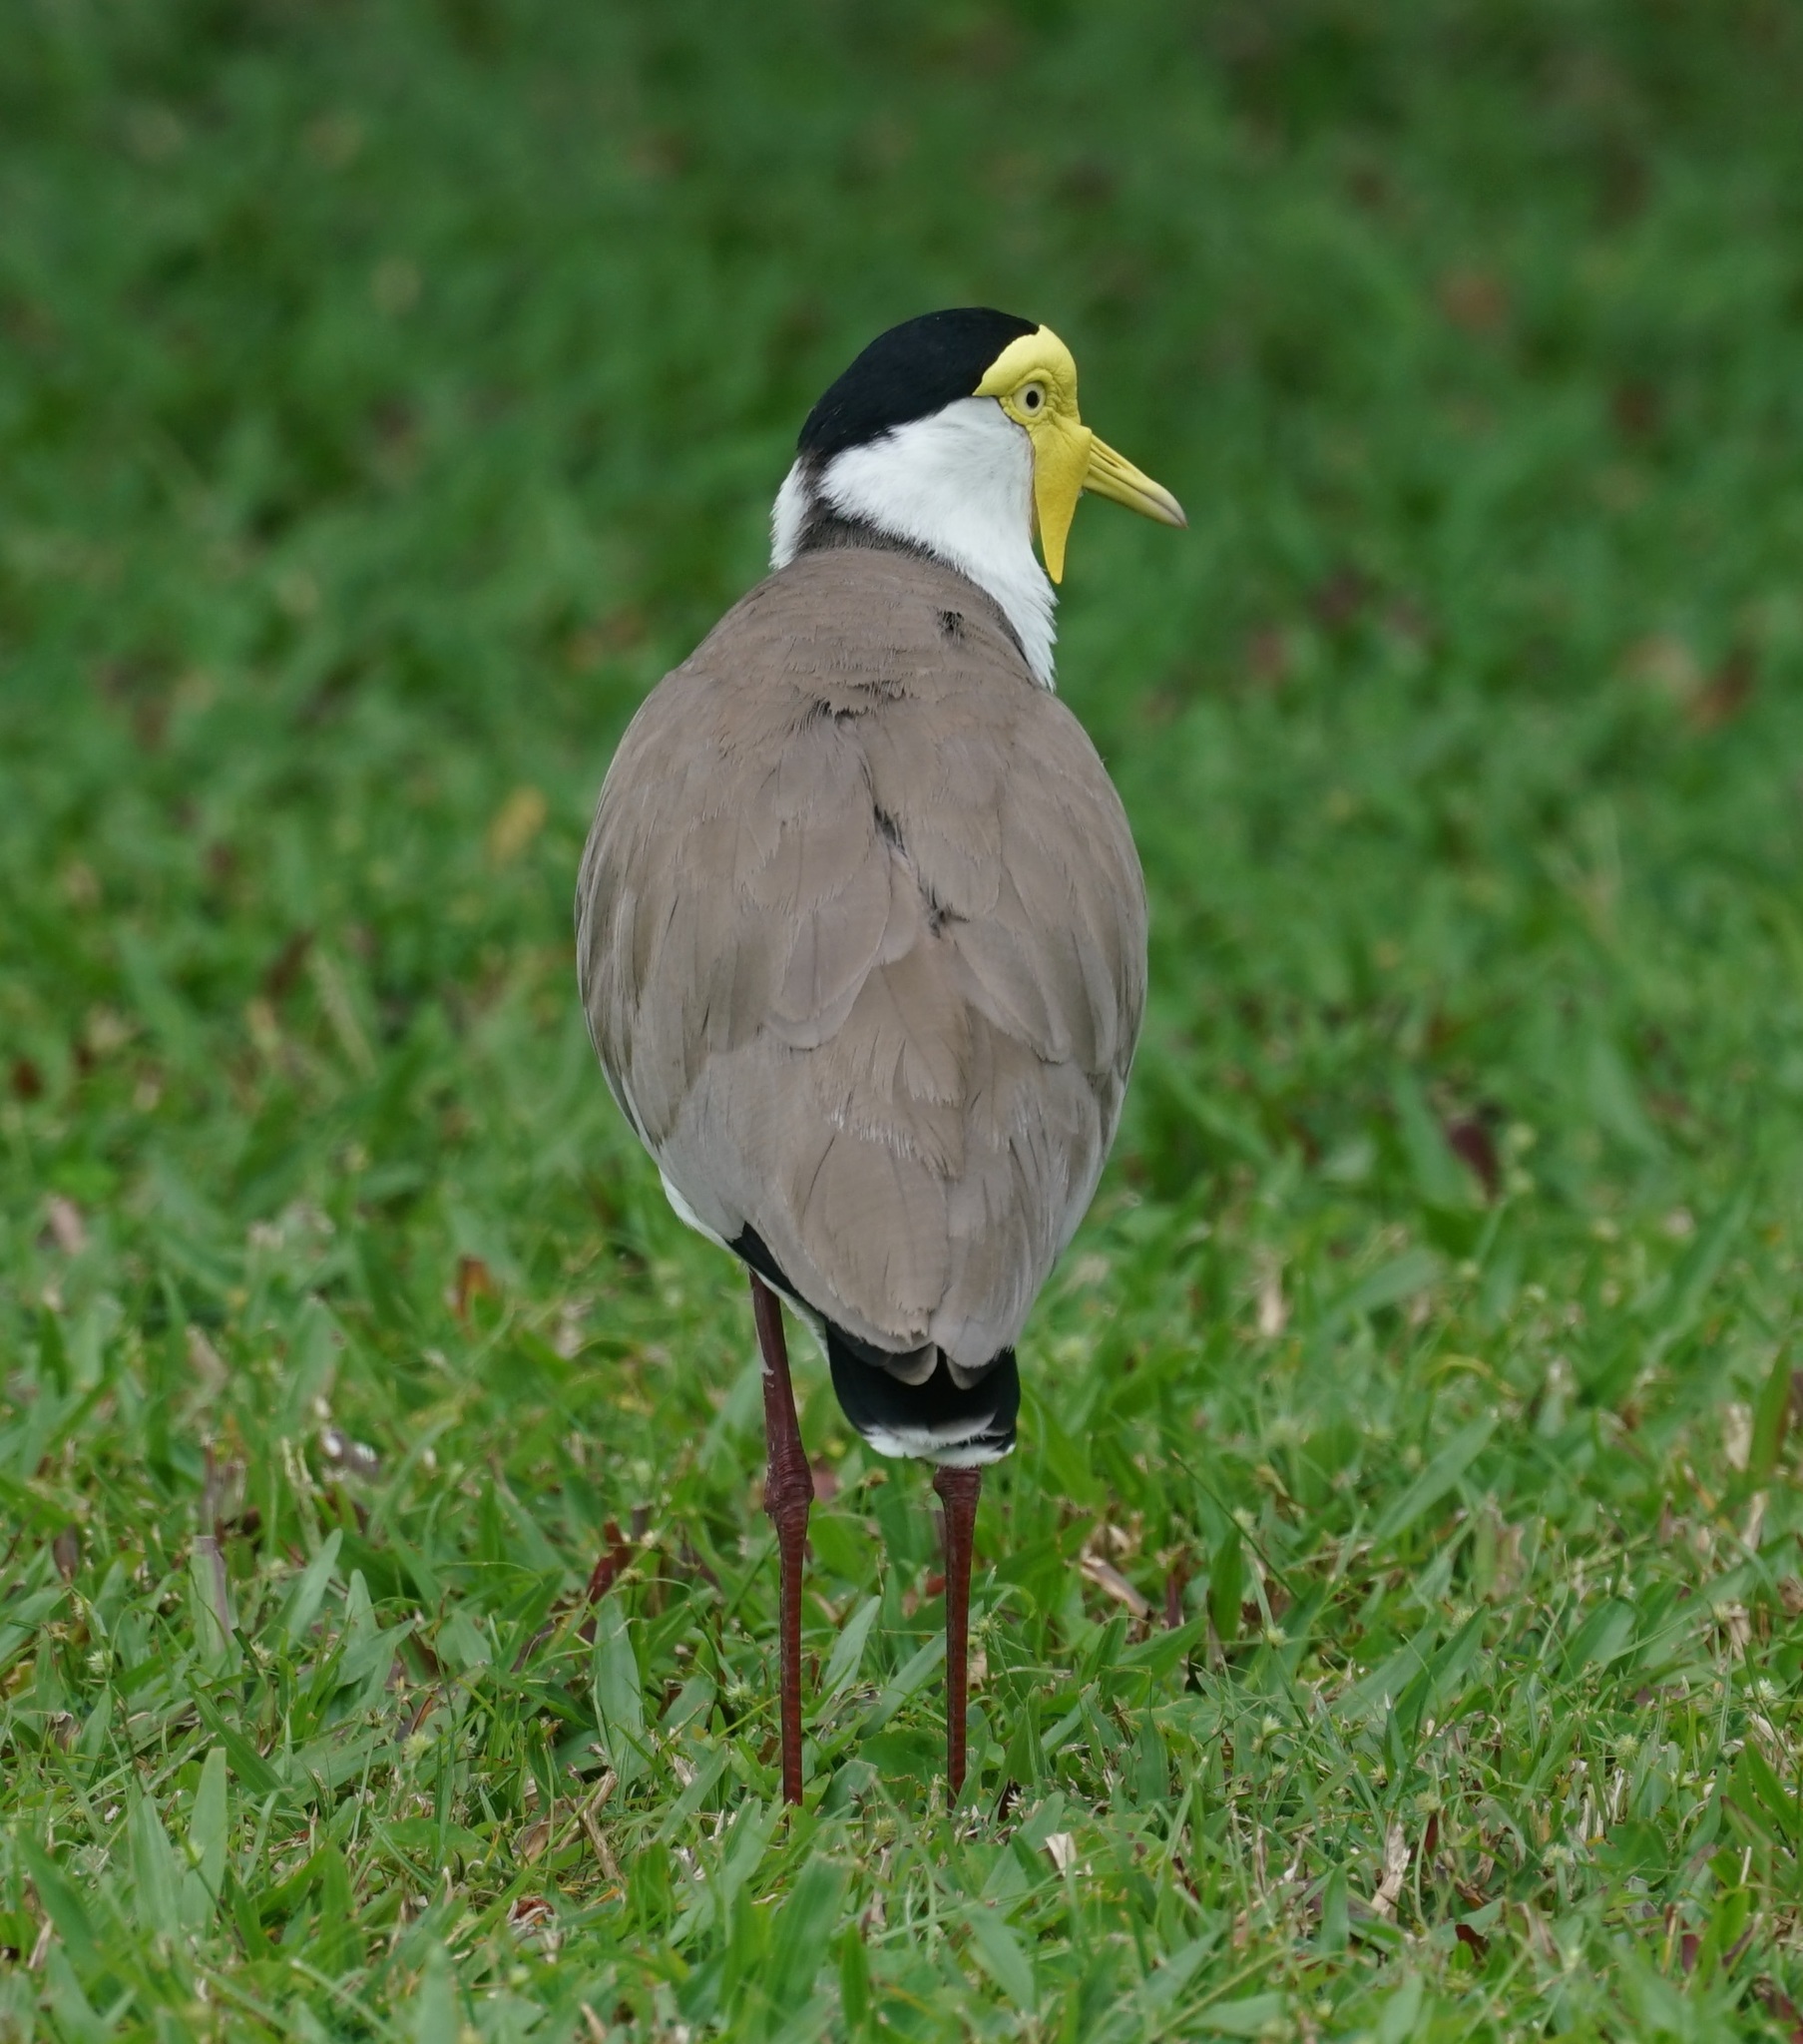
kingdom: Animalia
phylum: Chordata
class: Aves
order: Charadriiformes
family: Charadriidae
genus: Vanellus
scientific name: Vanellus miles
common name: Masked lapwing
